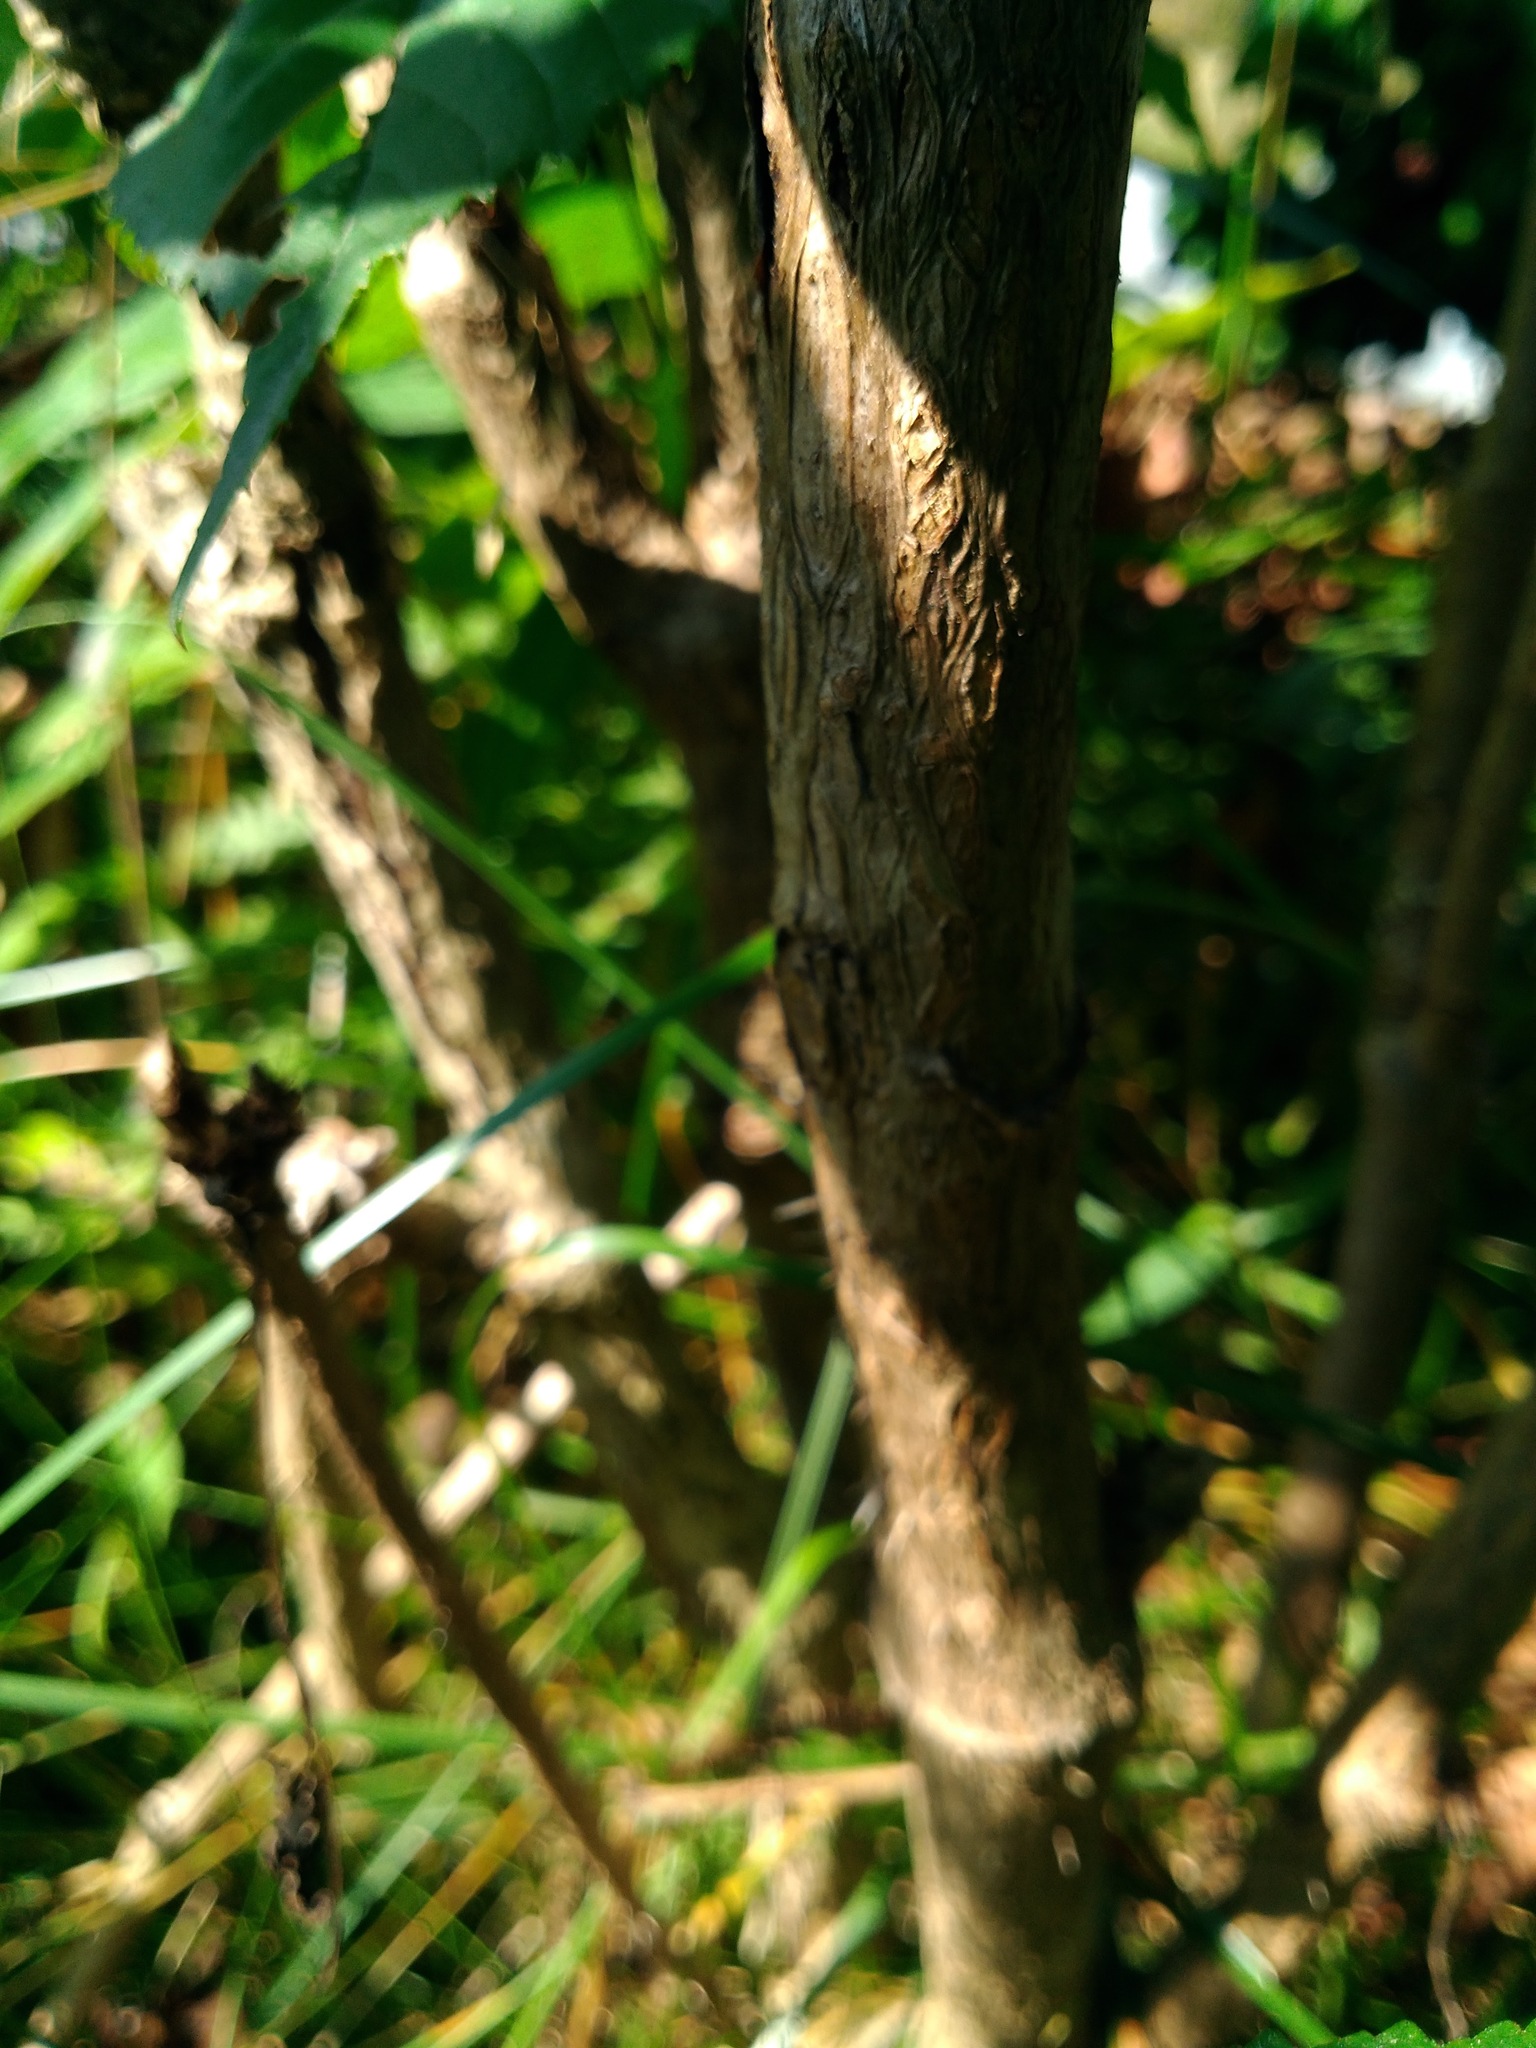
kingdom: Plantae
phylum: Tracheophyta
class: Magnoliopsida
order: Apiales
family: Araliaceae
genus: Aralia
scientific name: Aralia hispida
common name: Bristly sarsaparilla
